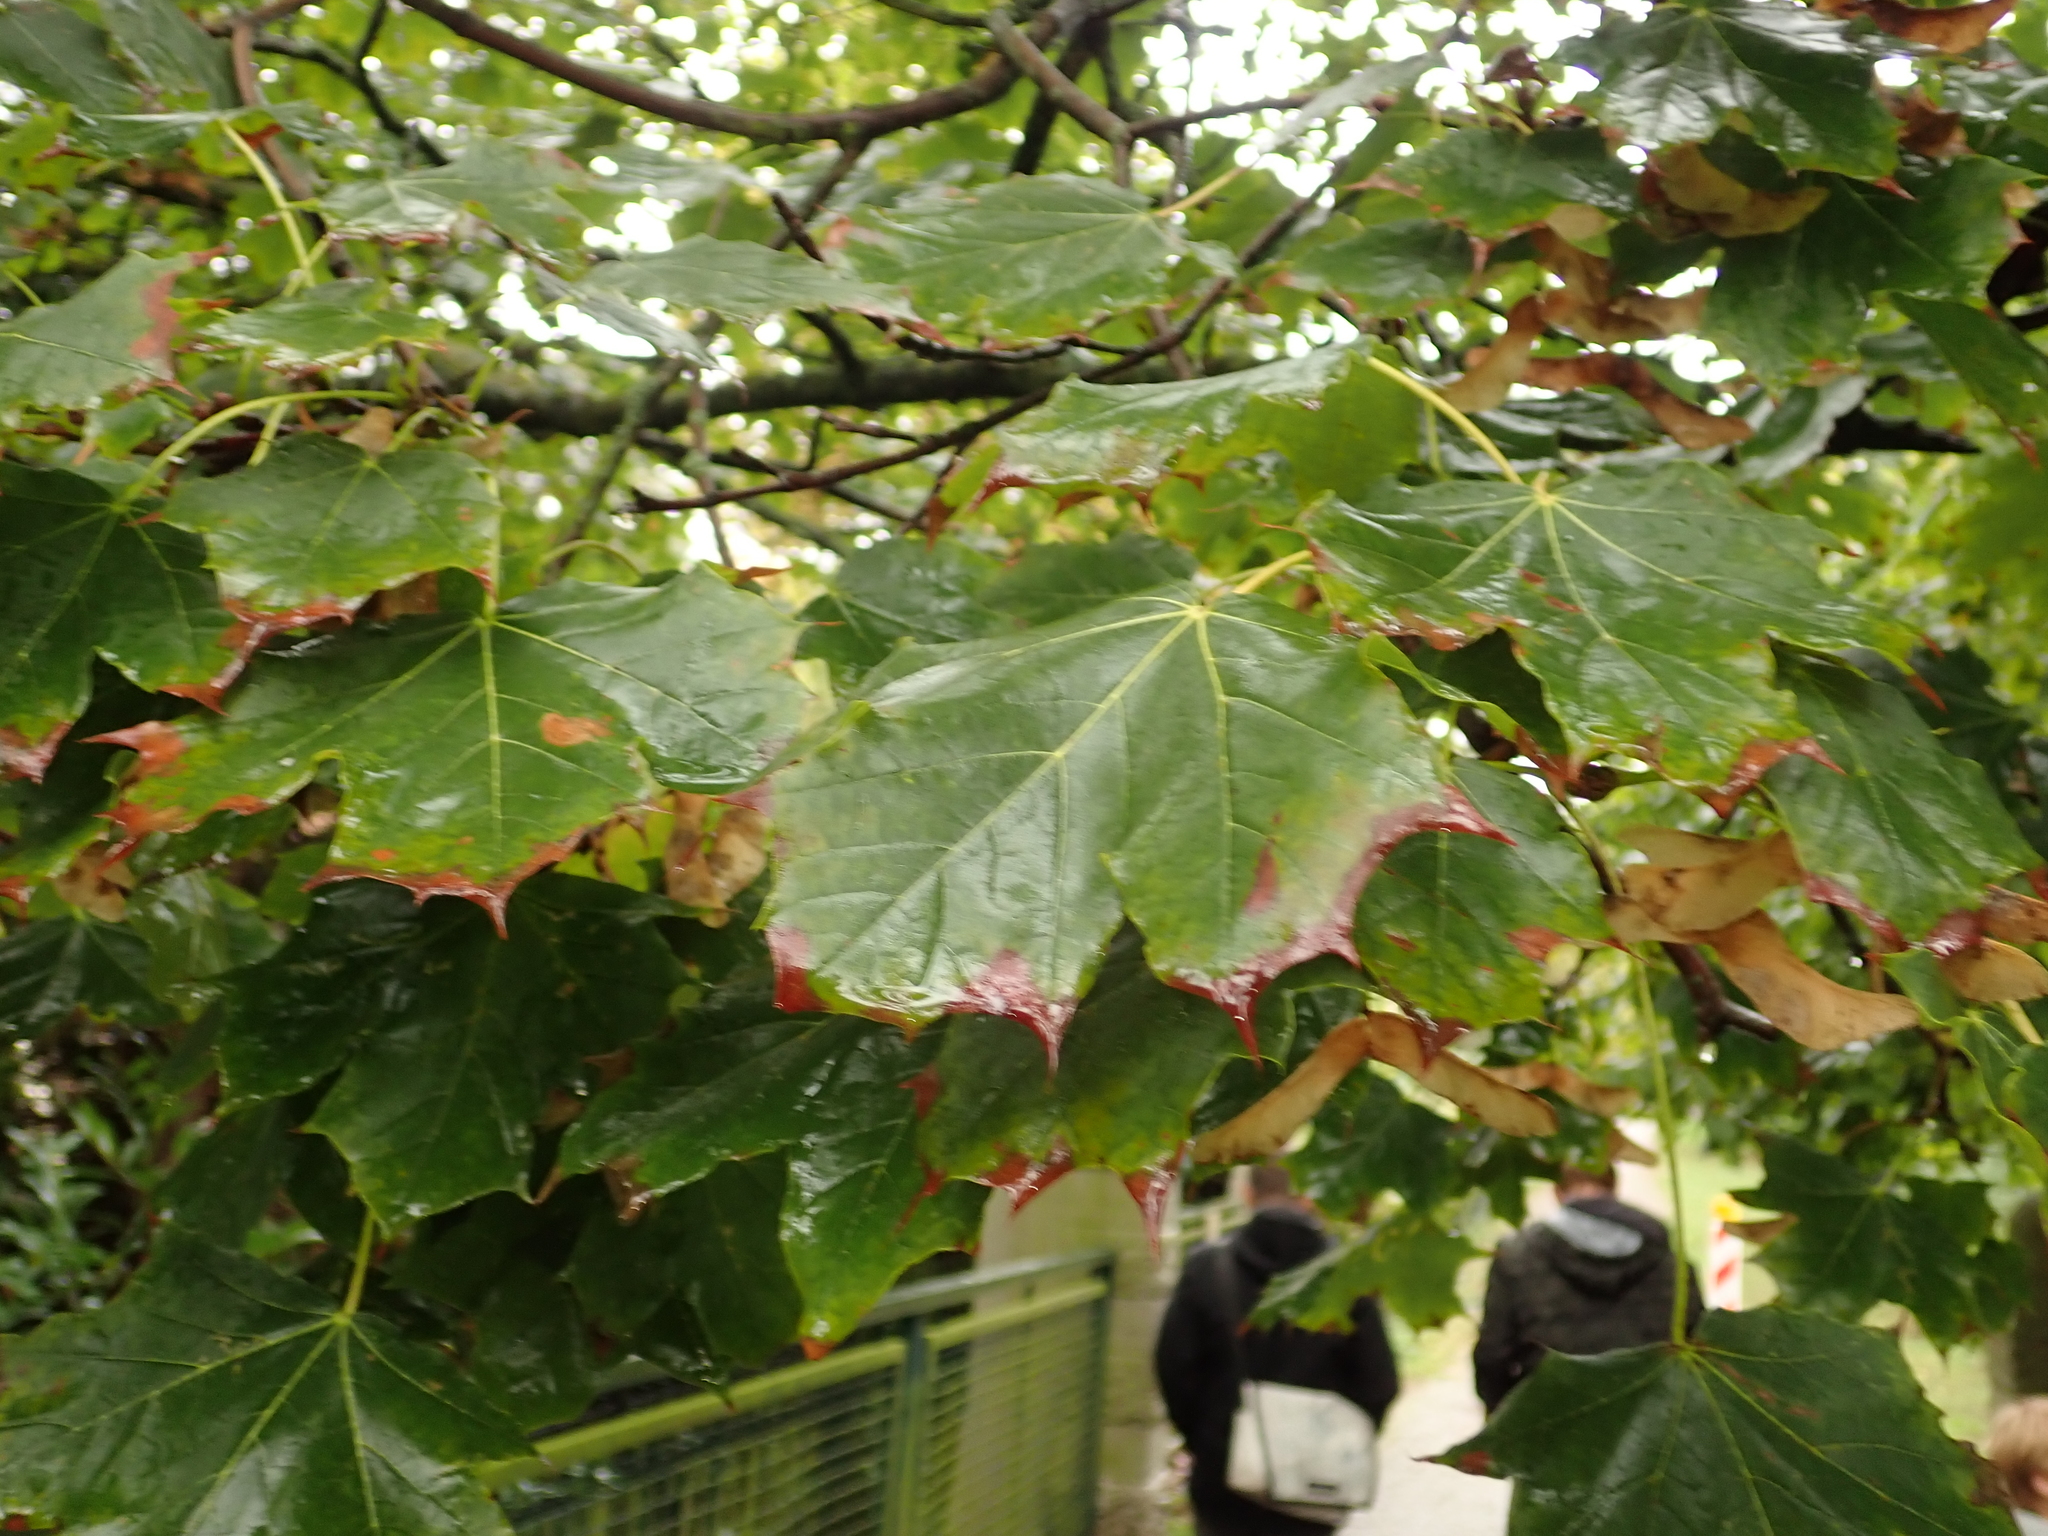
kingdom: Plantae
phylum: Tracheophyta
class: Magnoliopsida
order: Sapindales
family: Sapindaceae
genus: Acer
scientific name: Acer platanoides
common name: Norway maple
